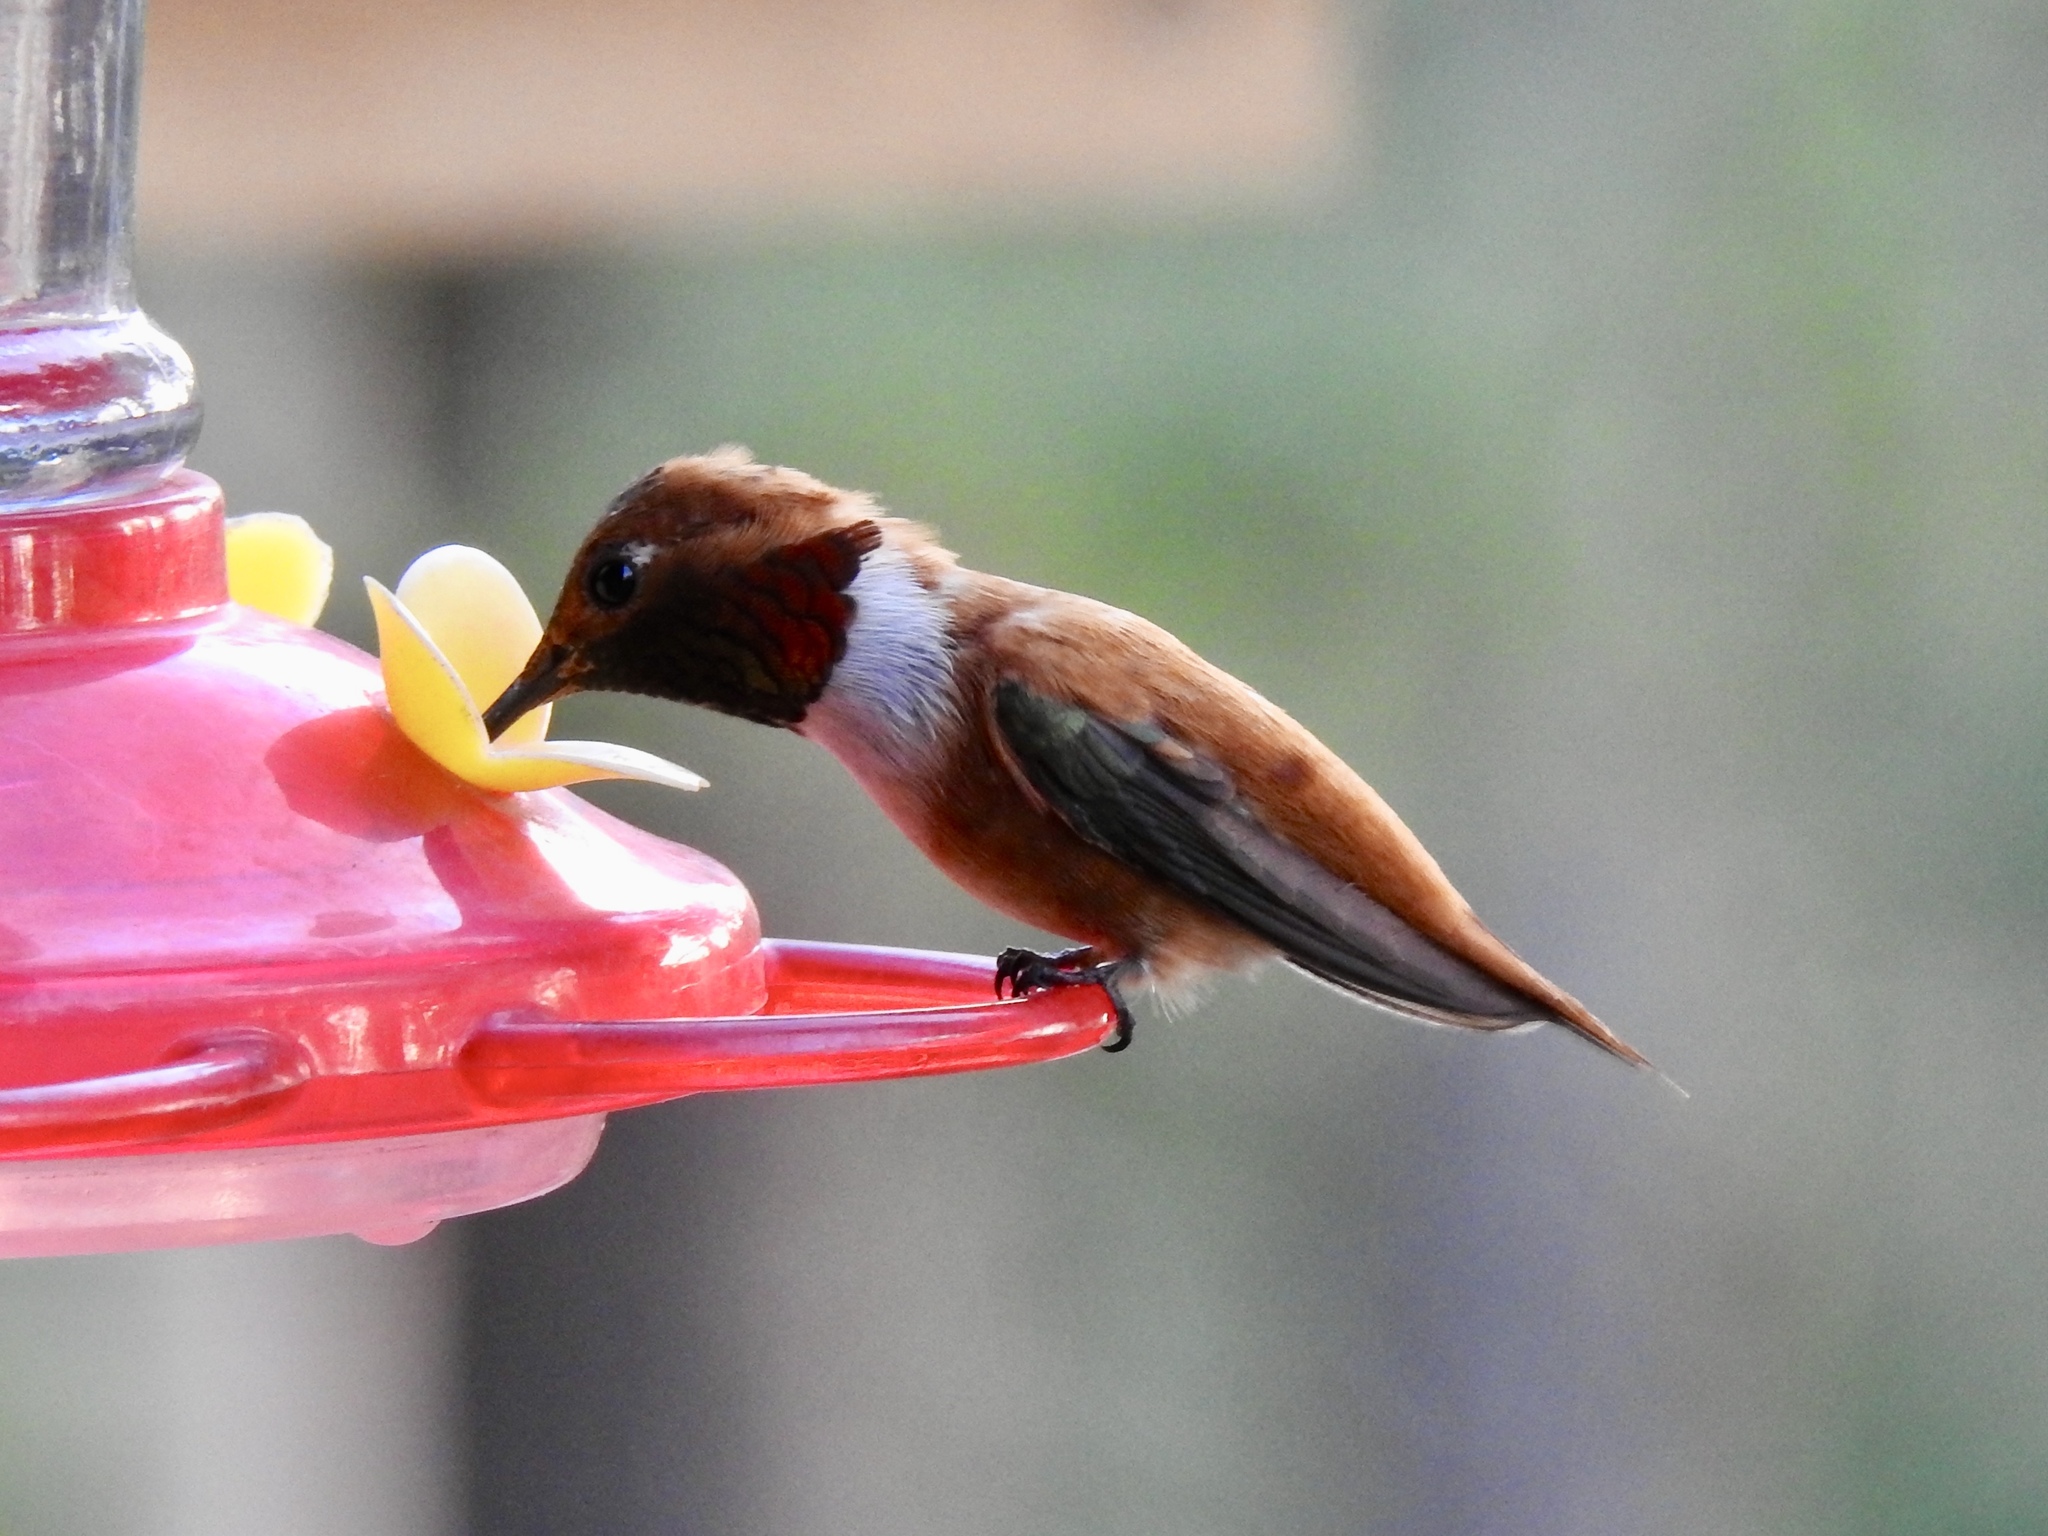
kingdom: Animalia
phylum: Chordata
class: Aves
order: Apodiformes
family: Trochilidae
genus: Selasphorus
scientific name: Selasphorus rufus
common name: Rufous hummingbird
